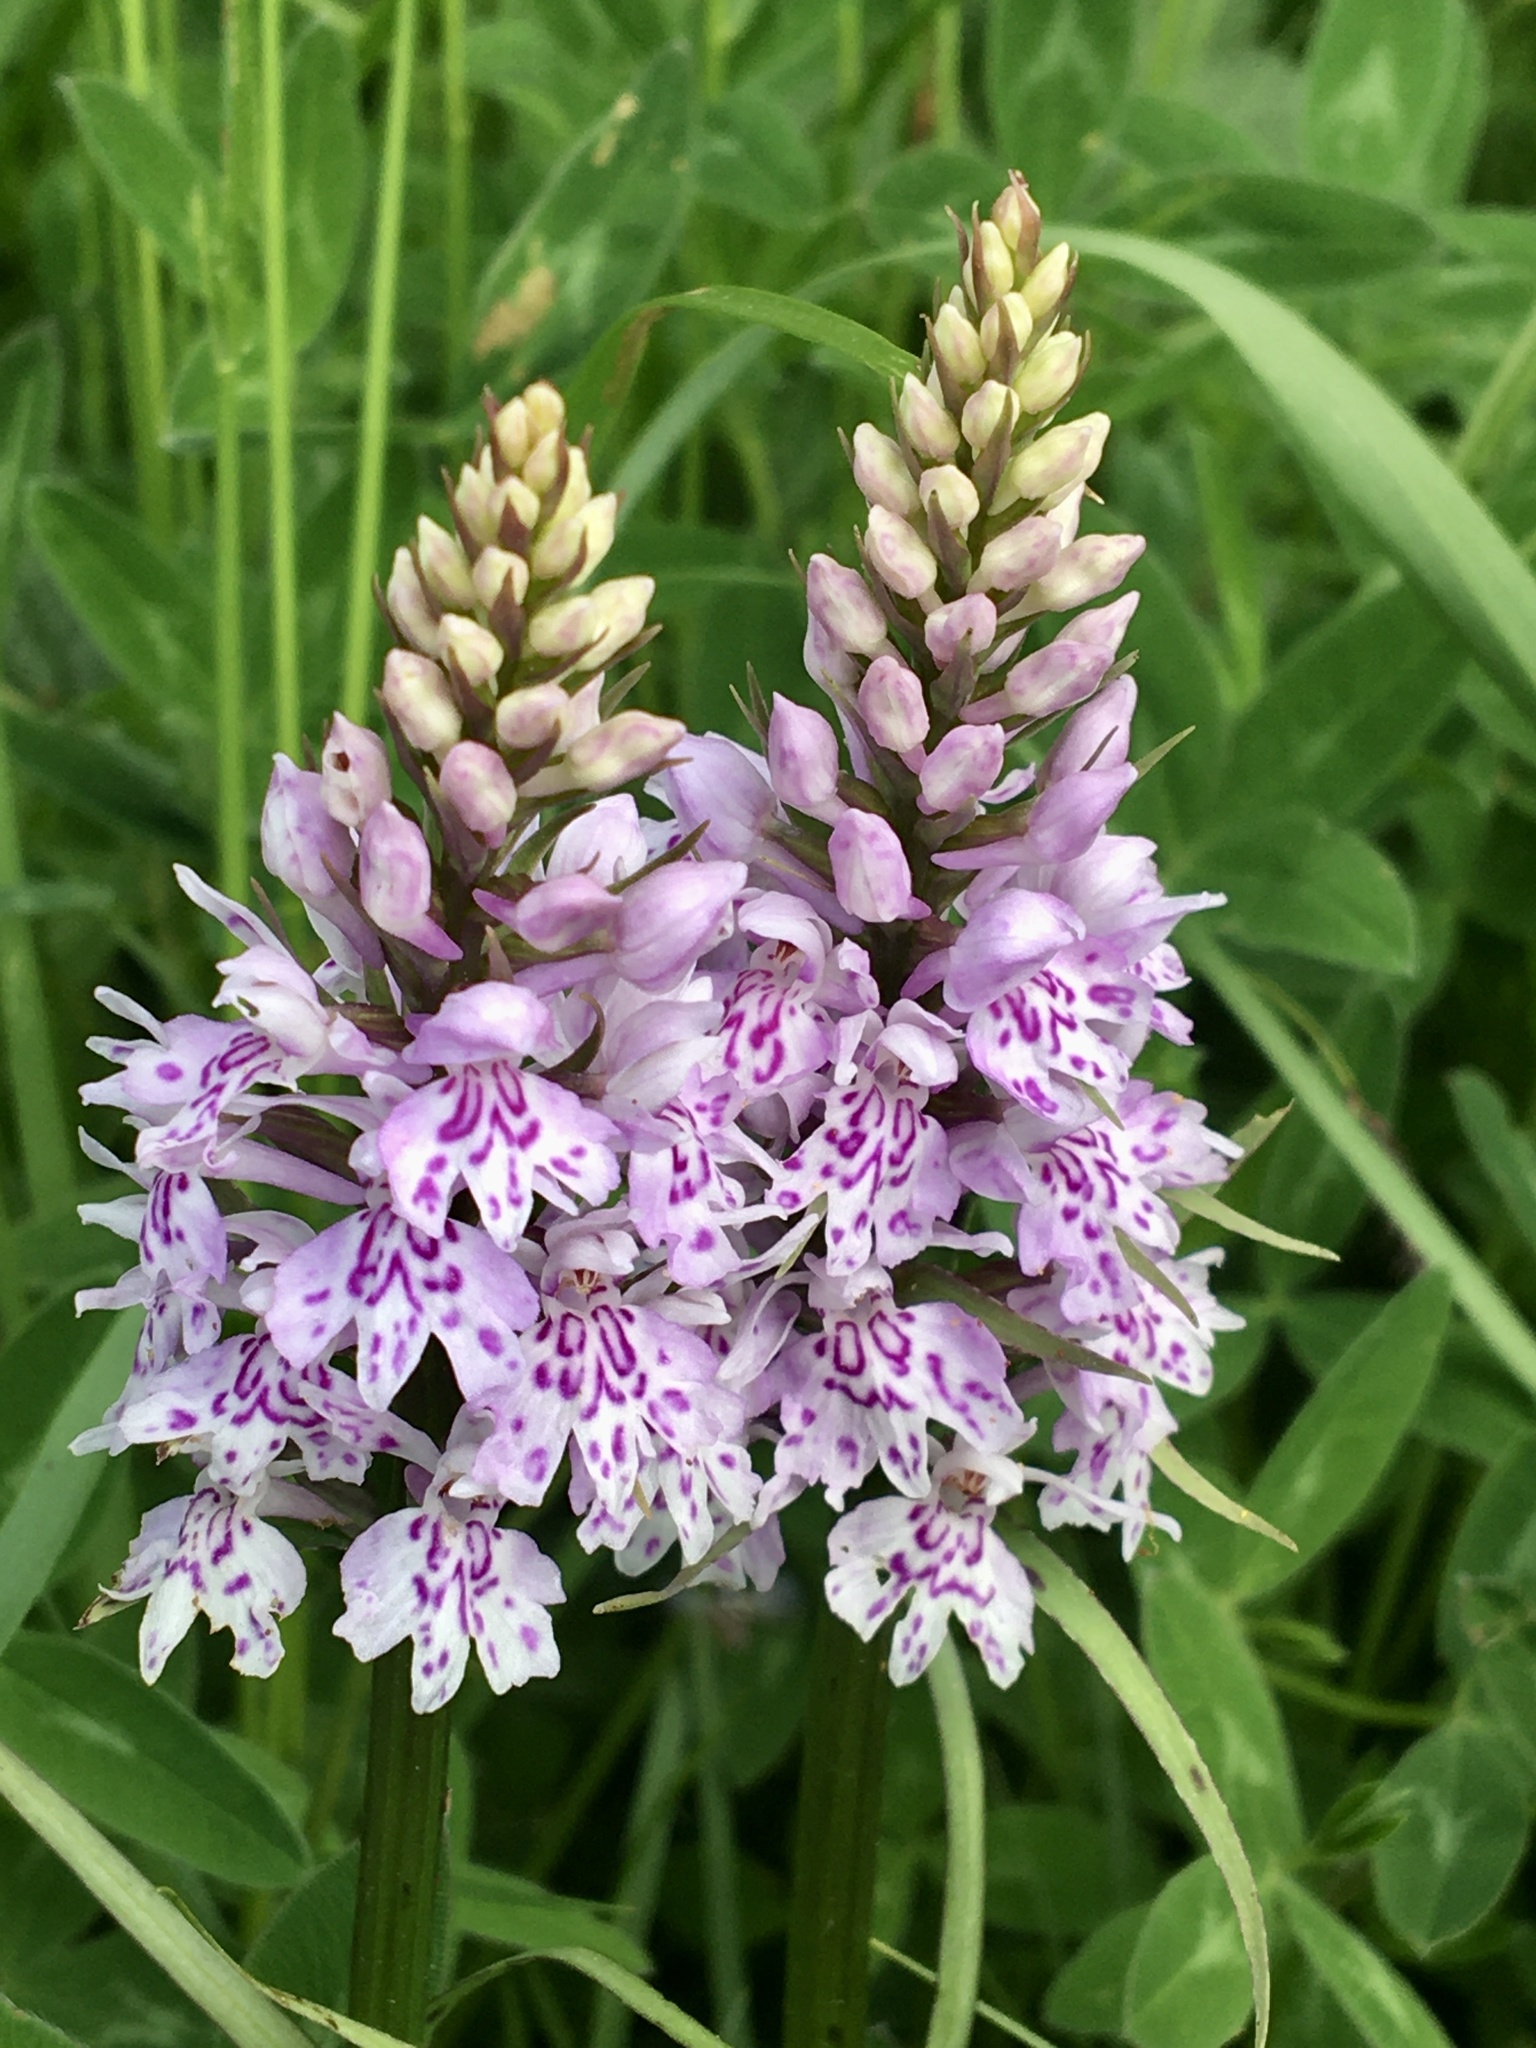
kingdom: Plantae
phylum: Tracheophyta
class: Liliopsida
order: Asparagales
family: Orchidaceae
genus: Dactylorhiza
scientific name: Dactylorhiza maculata
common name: Heath spotted-orchid
